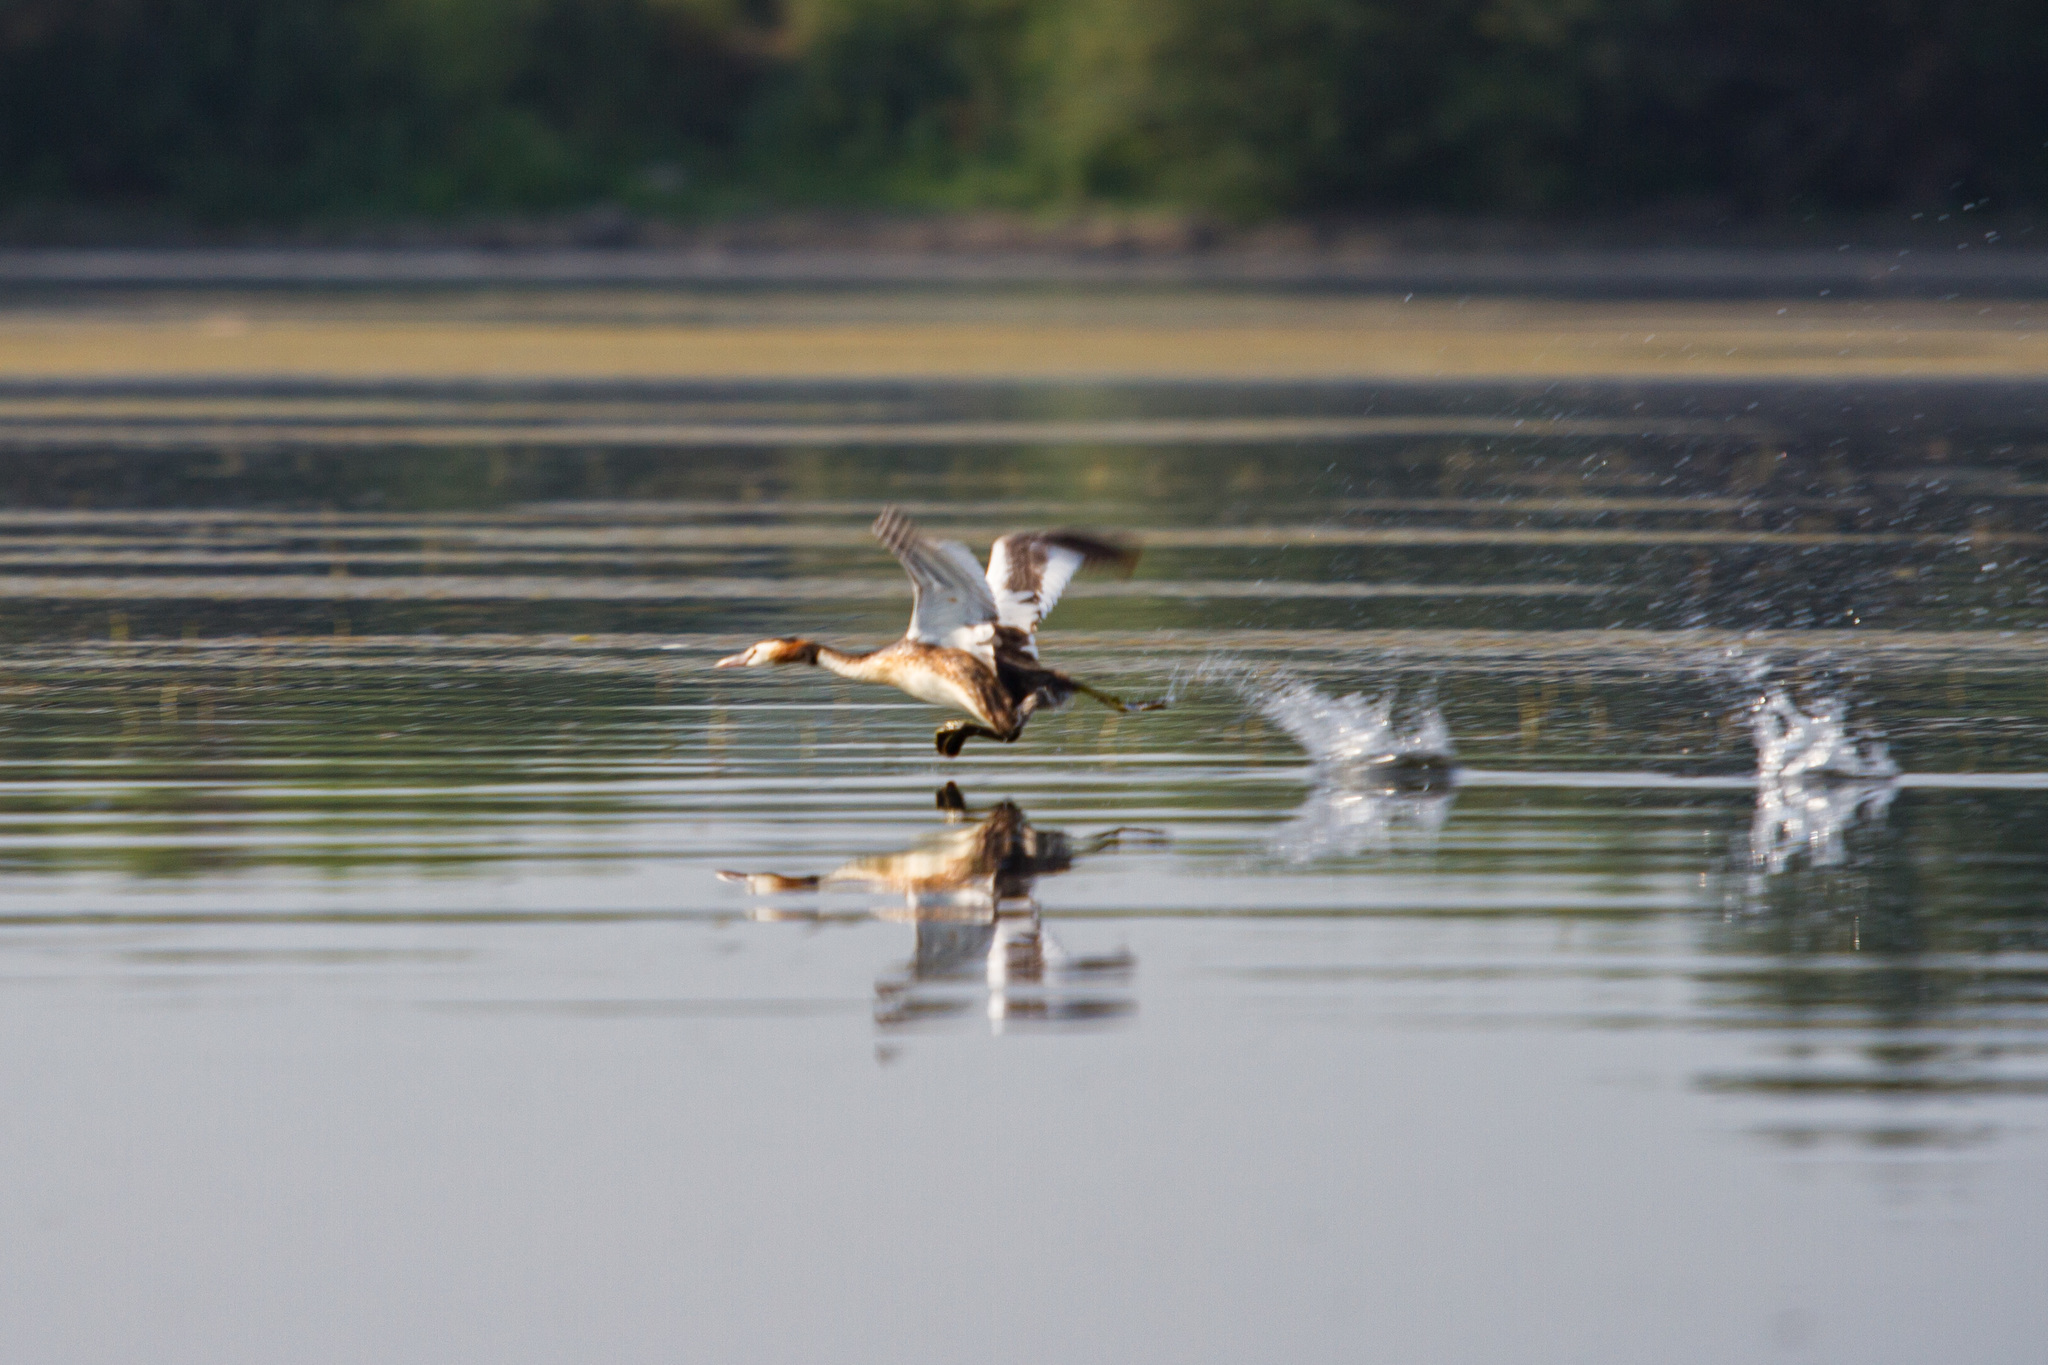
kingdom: Animalia
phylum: Chordata
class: Aves
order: Podicipediformes
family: Podicipedidae
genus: Podiceps
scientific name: Podiceps cristatus
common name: Great crested grebe
